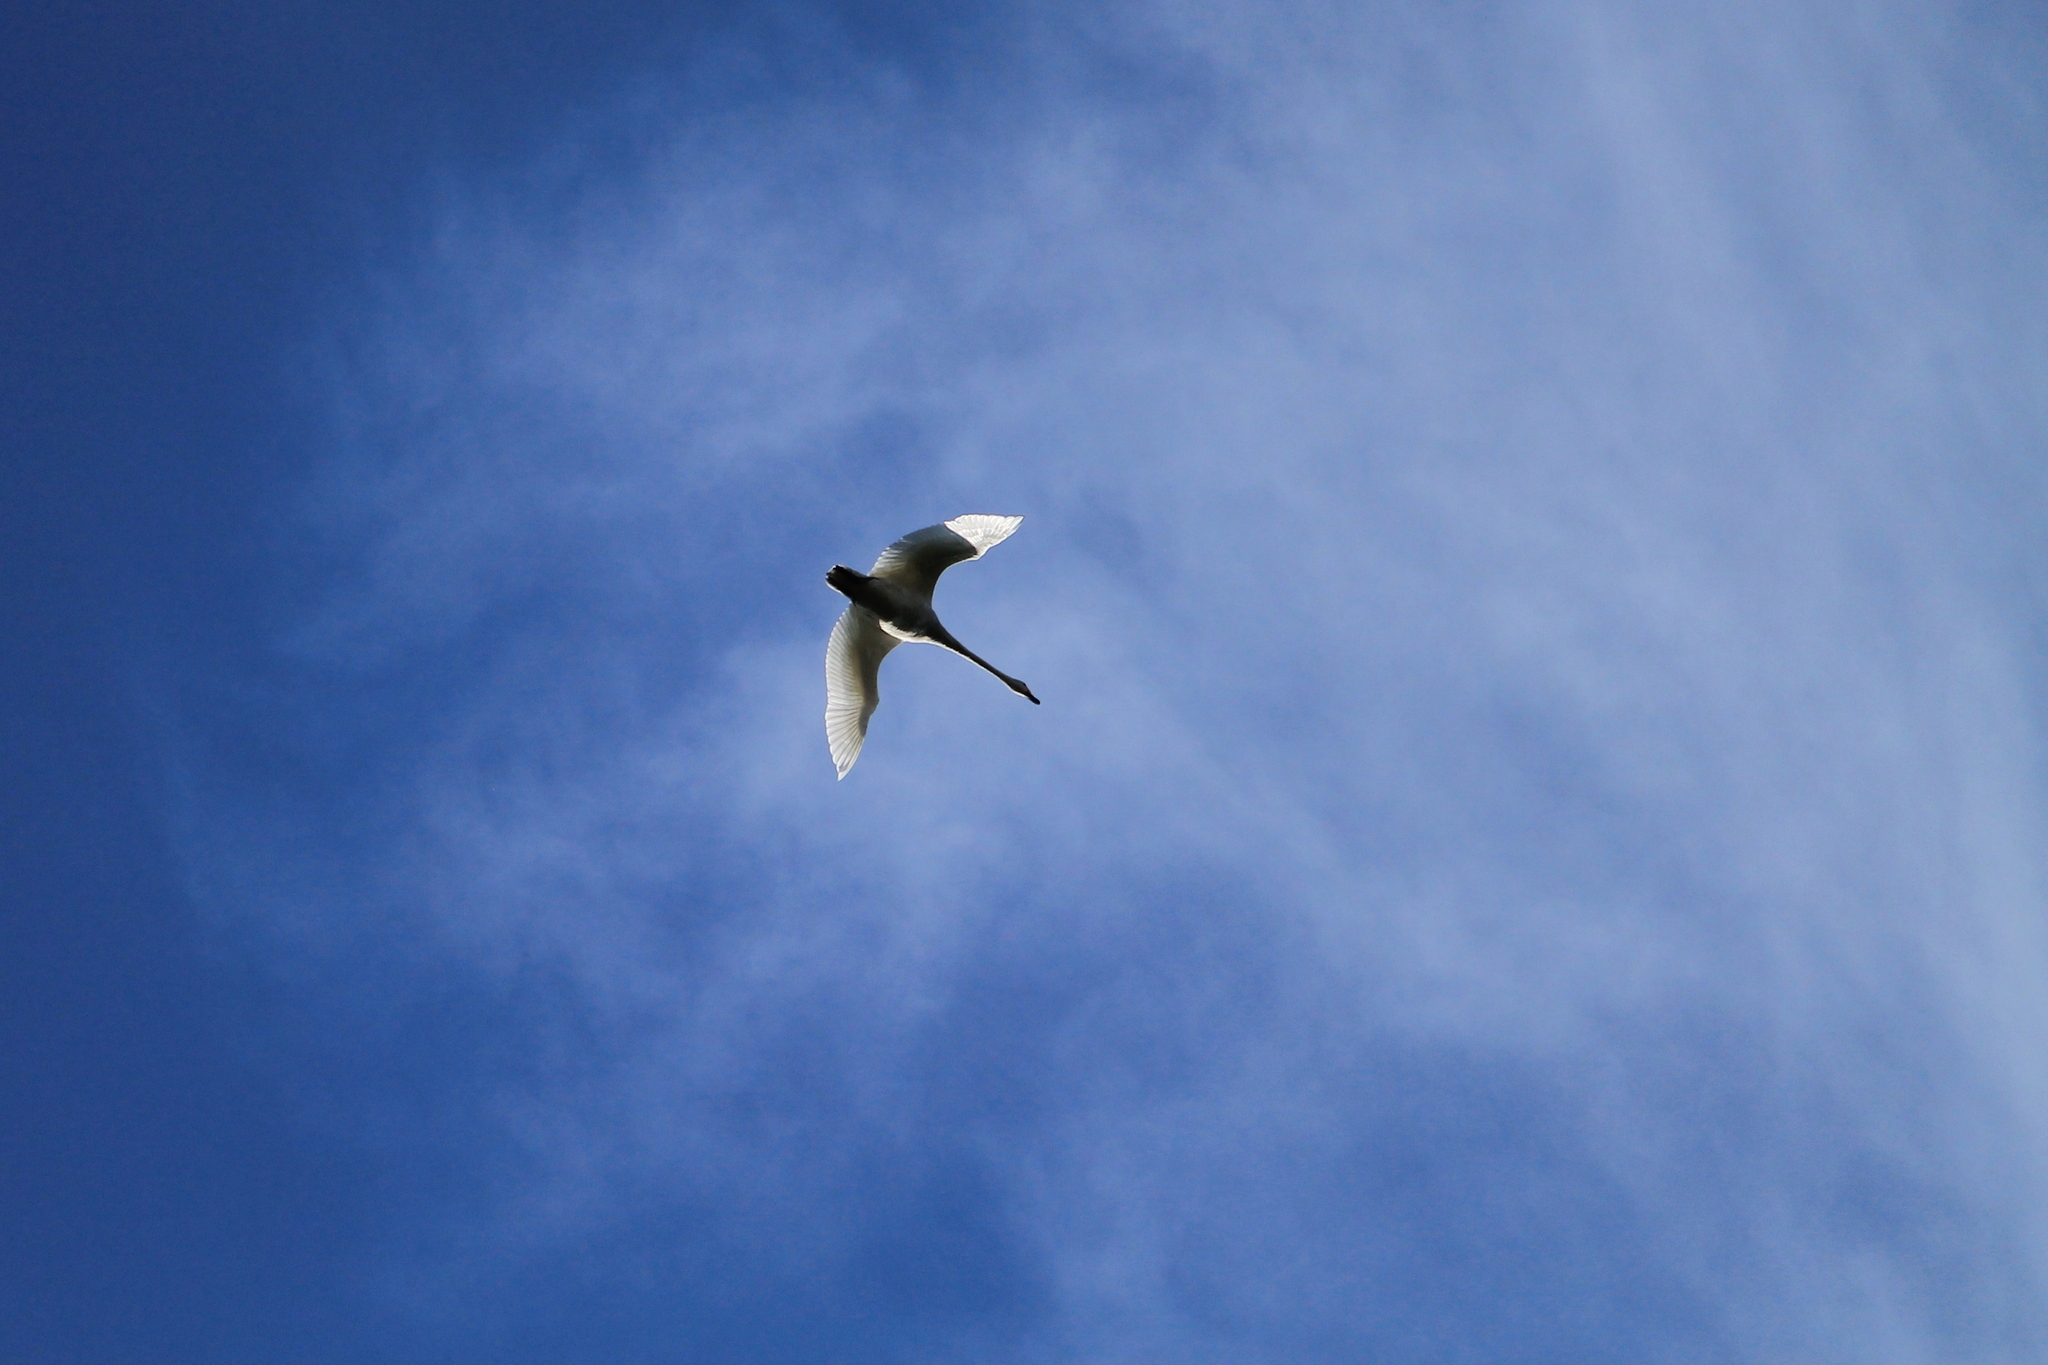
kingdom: Animalia
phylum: Chordata
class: Aves
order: Anseriformes
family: Anatidae
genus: Cygnus
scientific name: Cygnus cygnus
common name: Whooper swan
